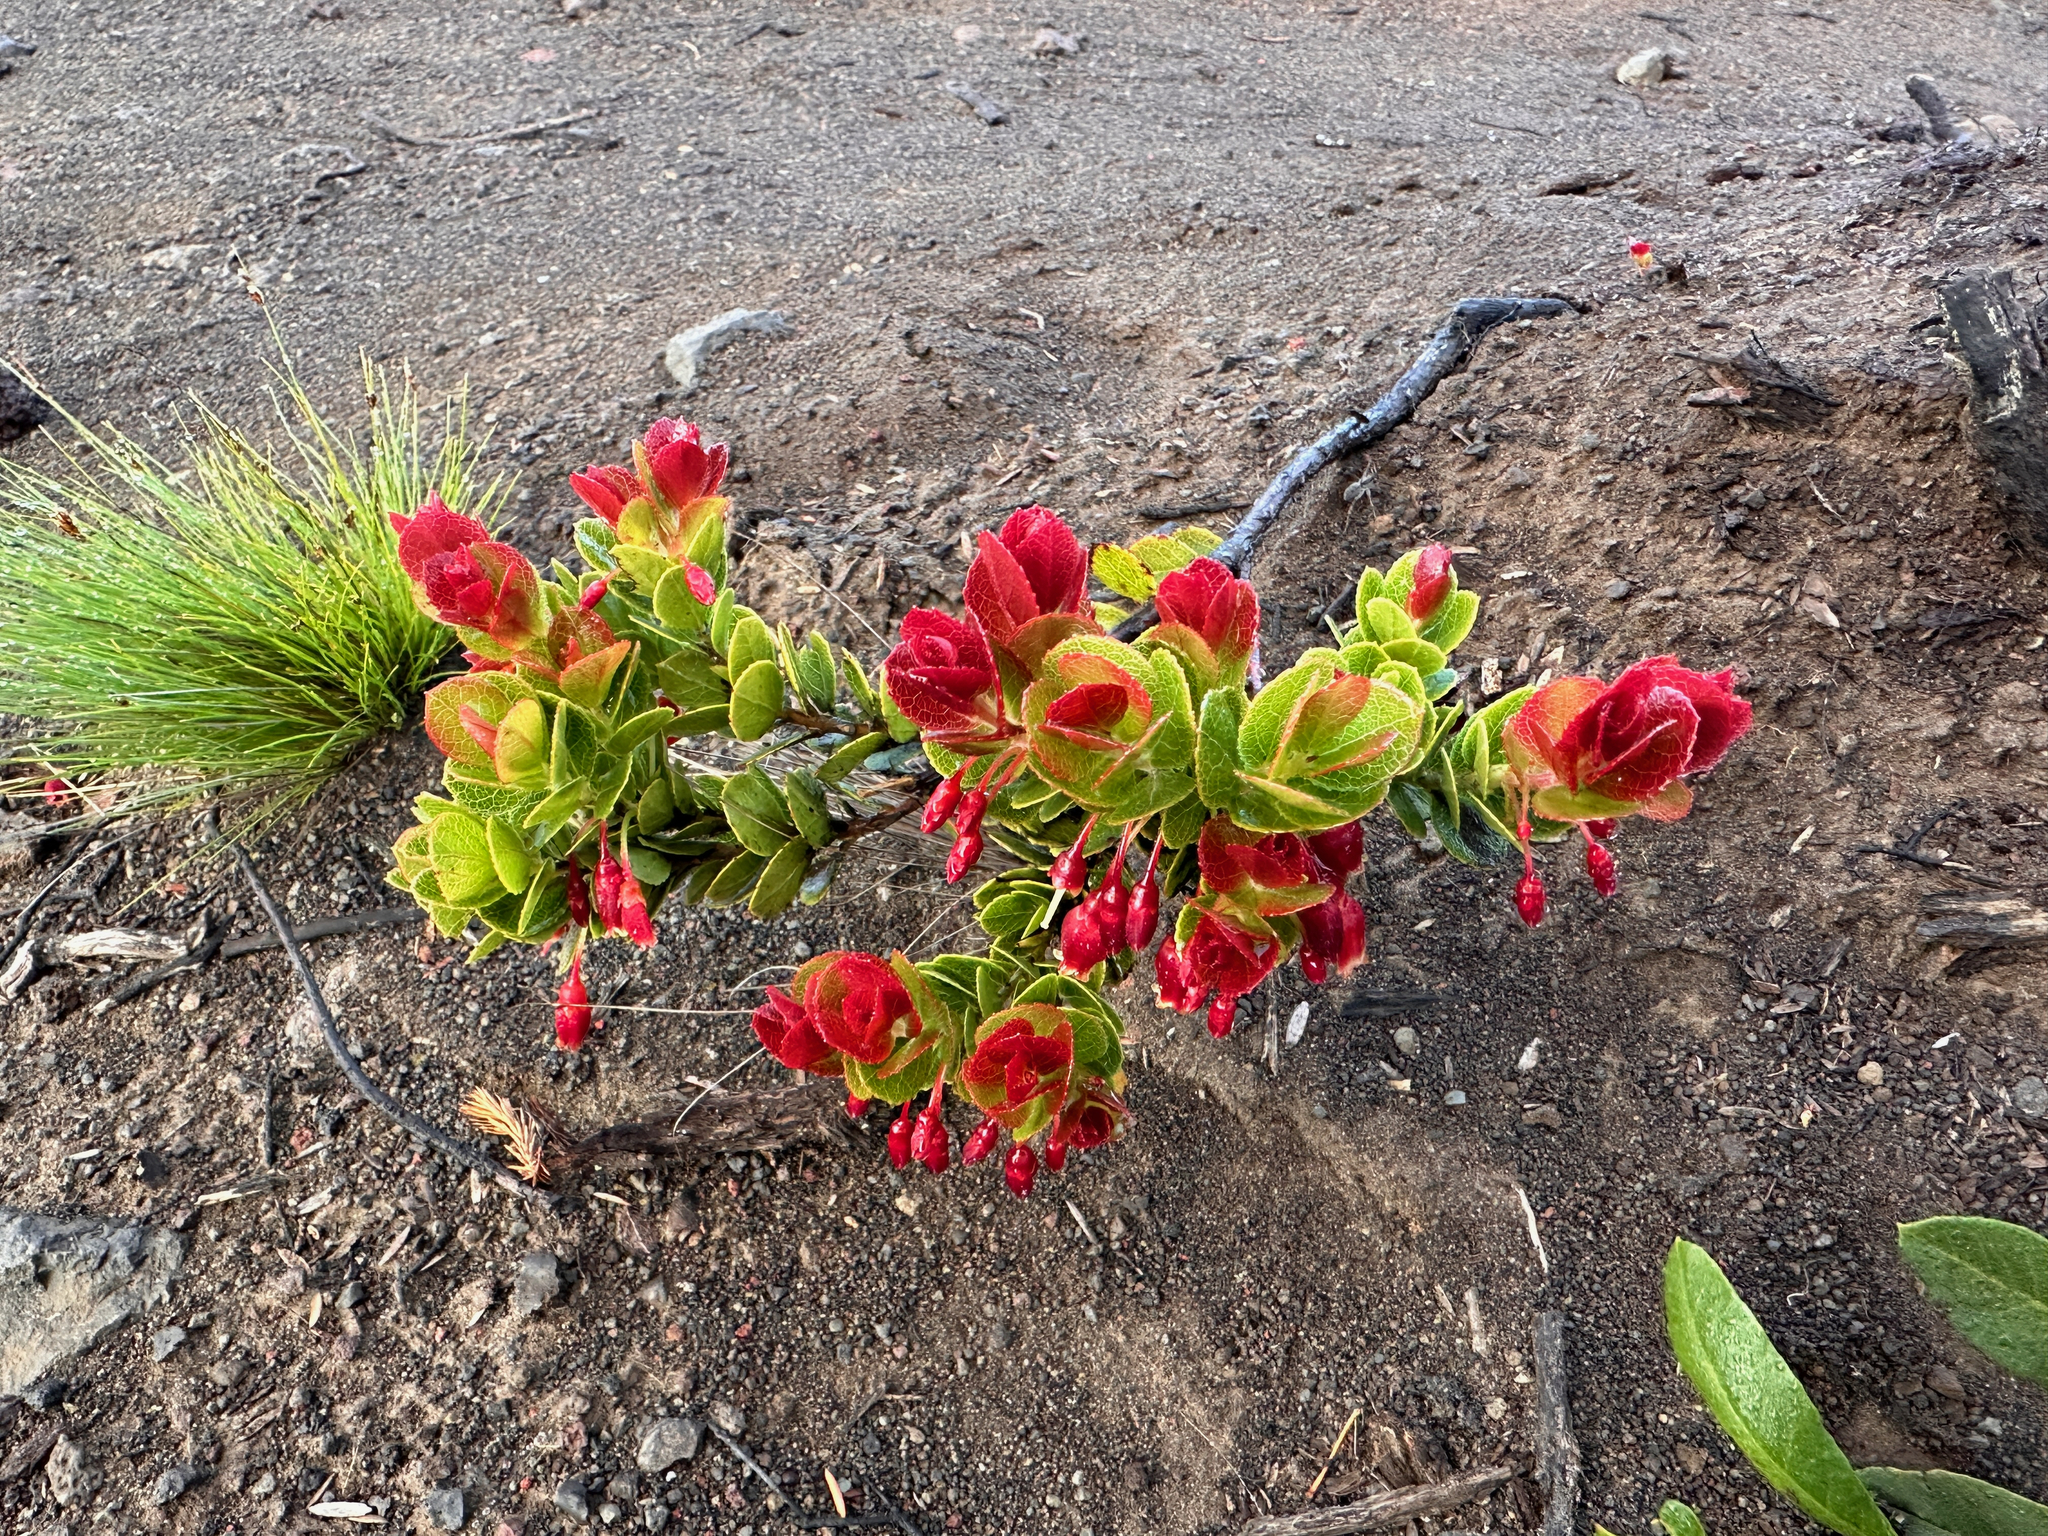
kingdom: Plantae
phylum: Tracheophyta
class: Magnoliopsida
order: Ericales
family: Ericaceae
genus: Vaccinium
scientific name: Vaccinium reticulatum
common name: Ohelo
